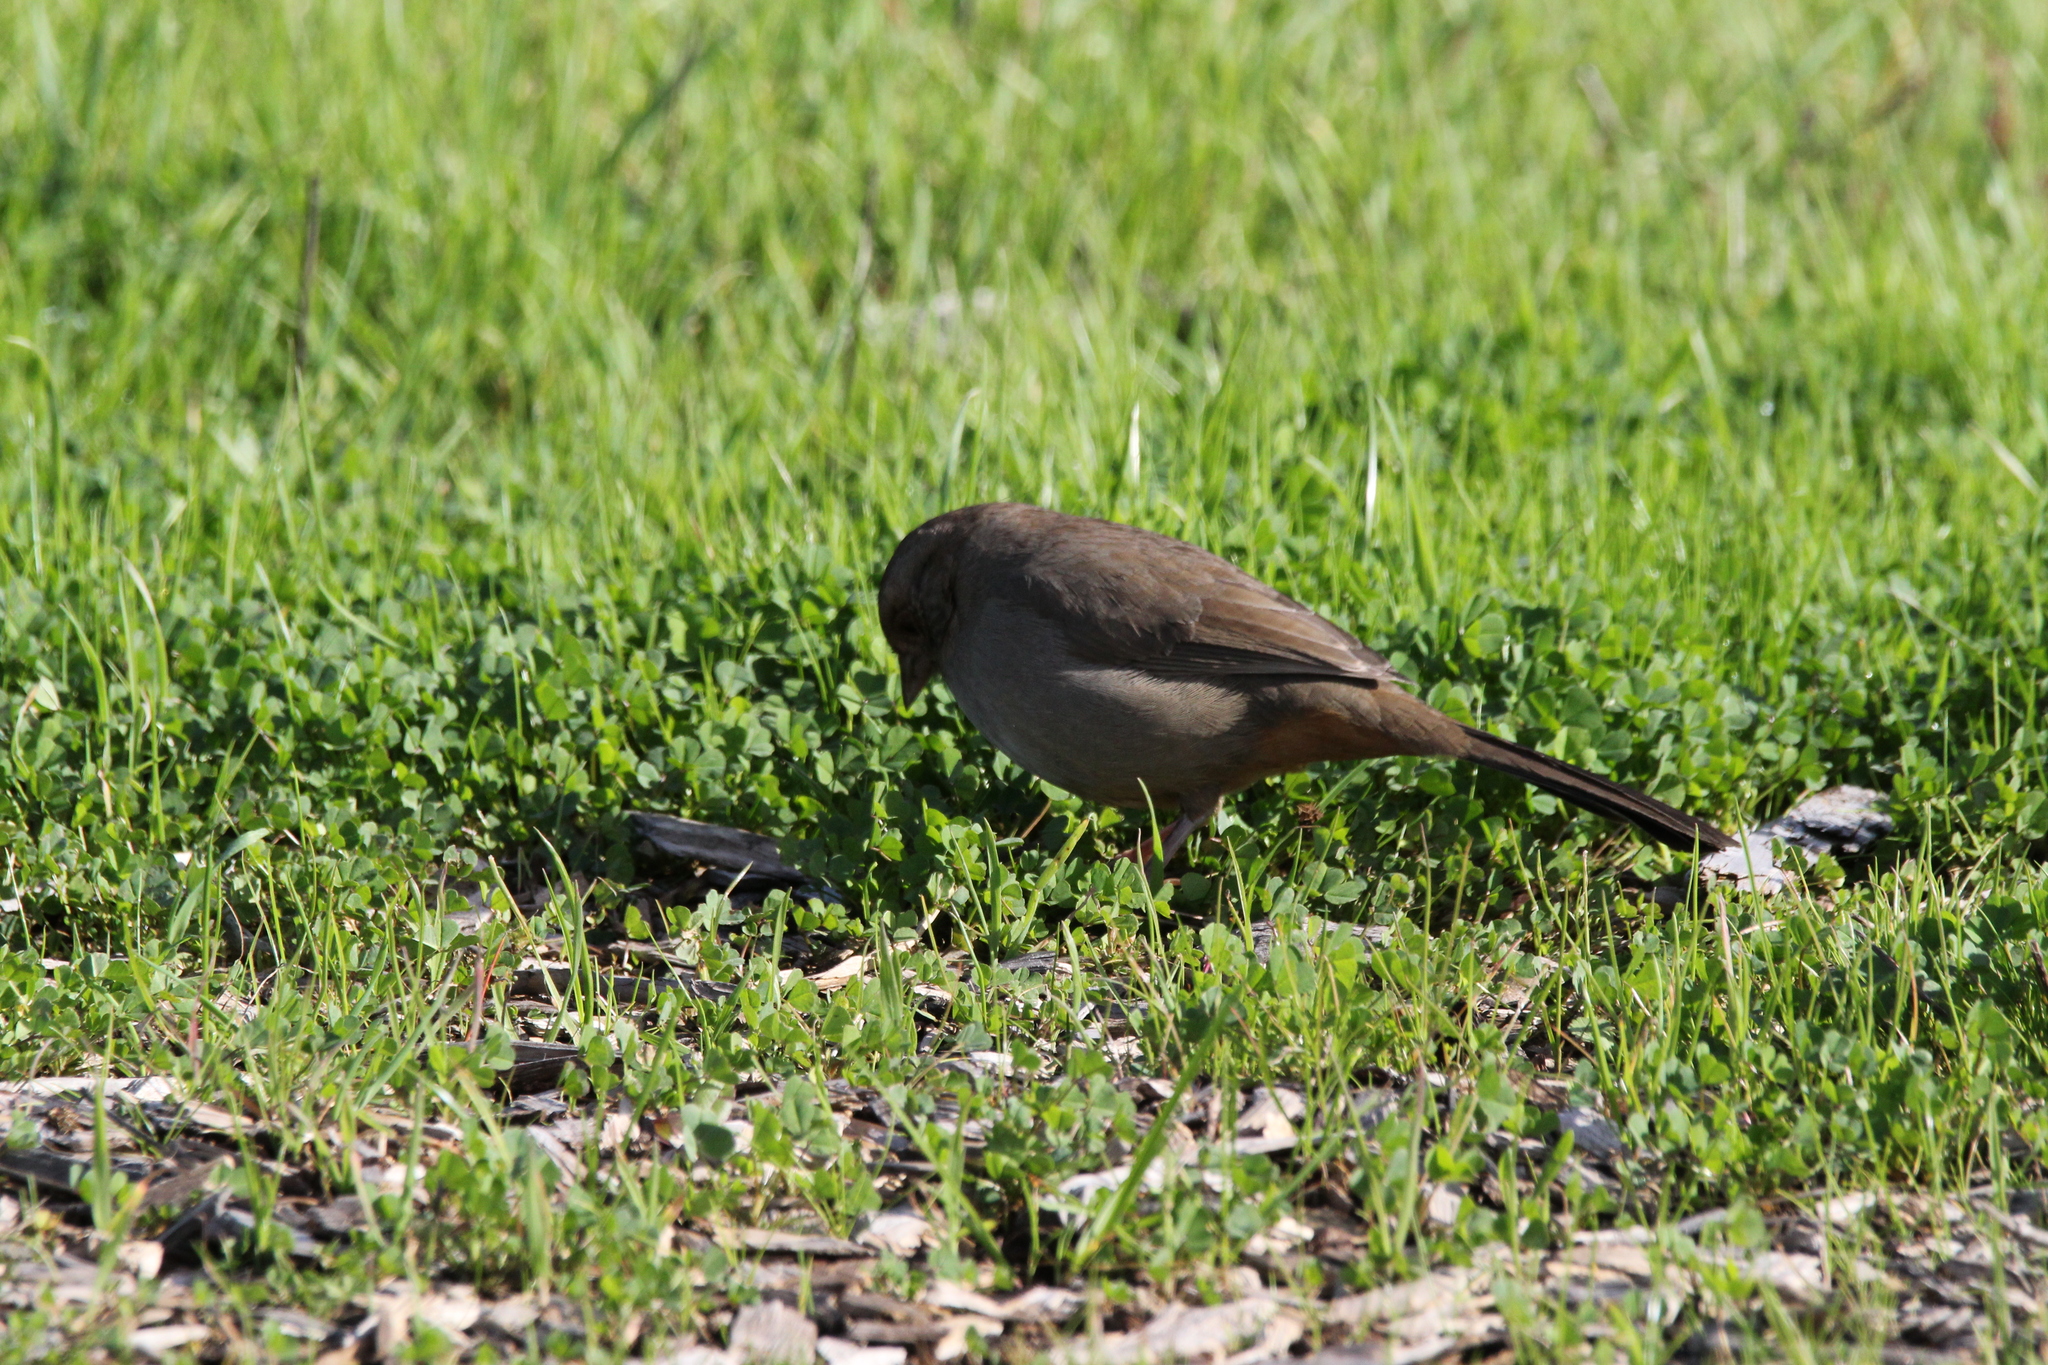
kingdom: Animalia
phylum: Chordata
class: Aves
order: Passeriformes
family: Passerellidae
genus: Melozone
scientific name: Melozone crissalis
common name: California towhee
